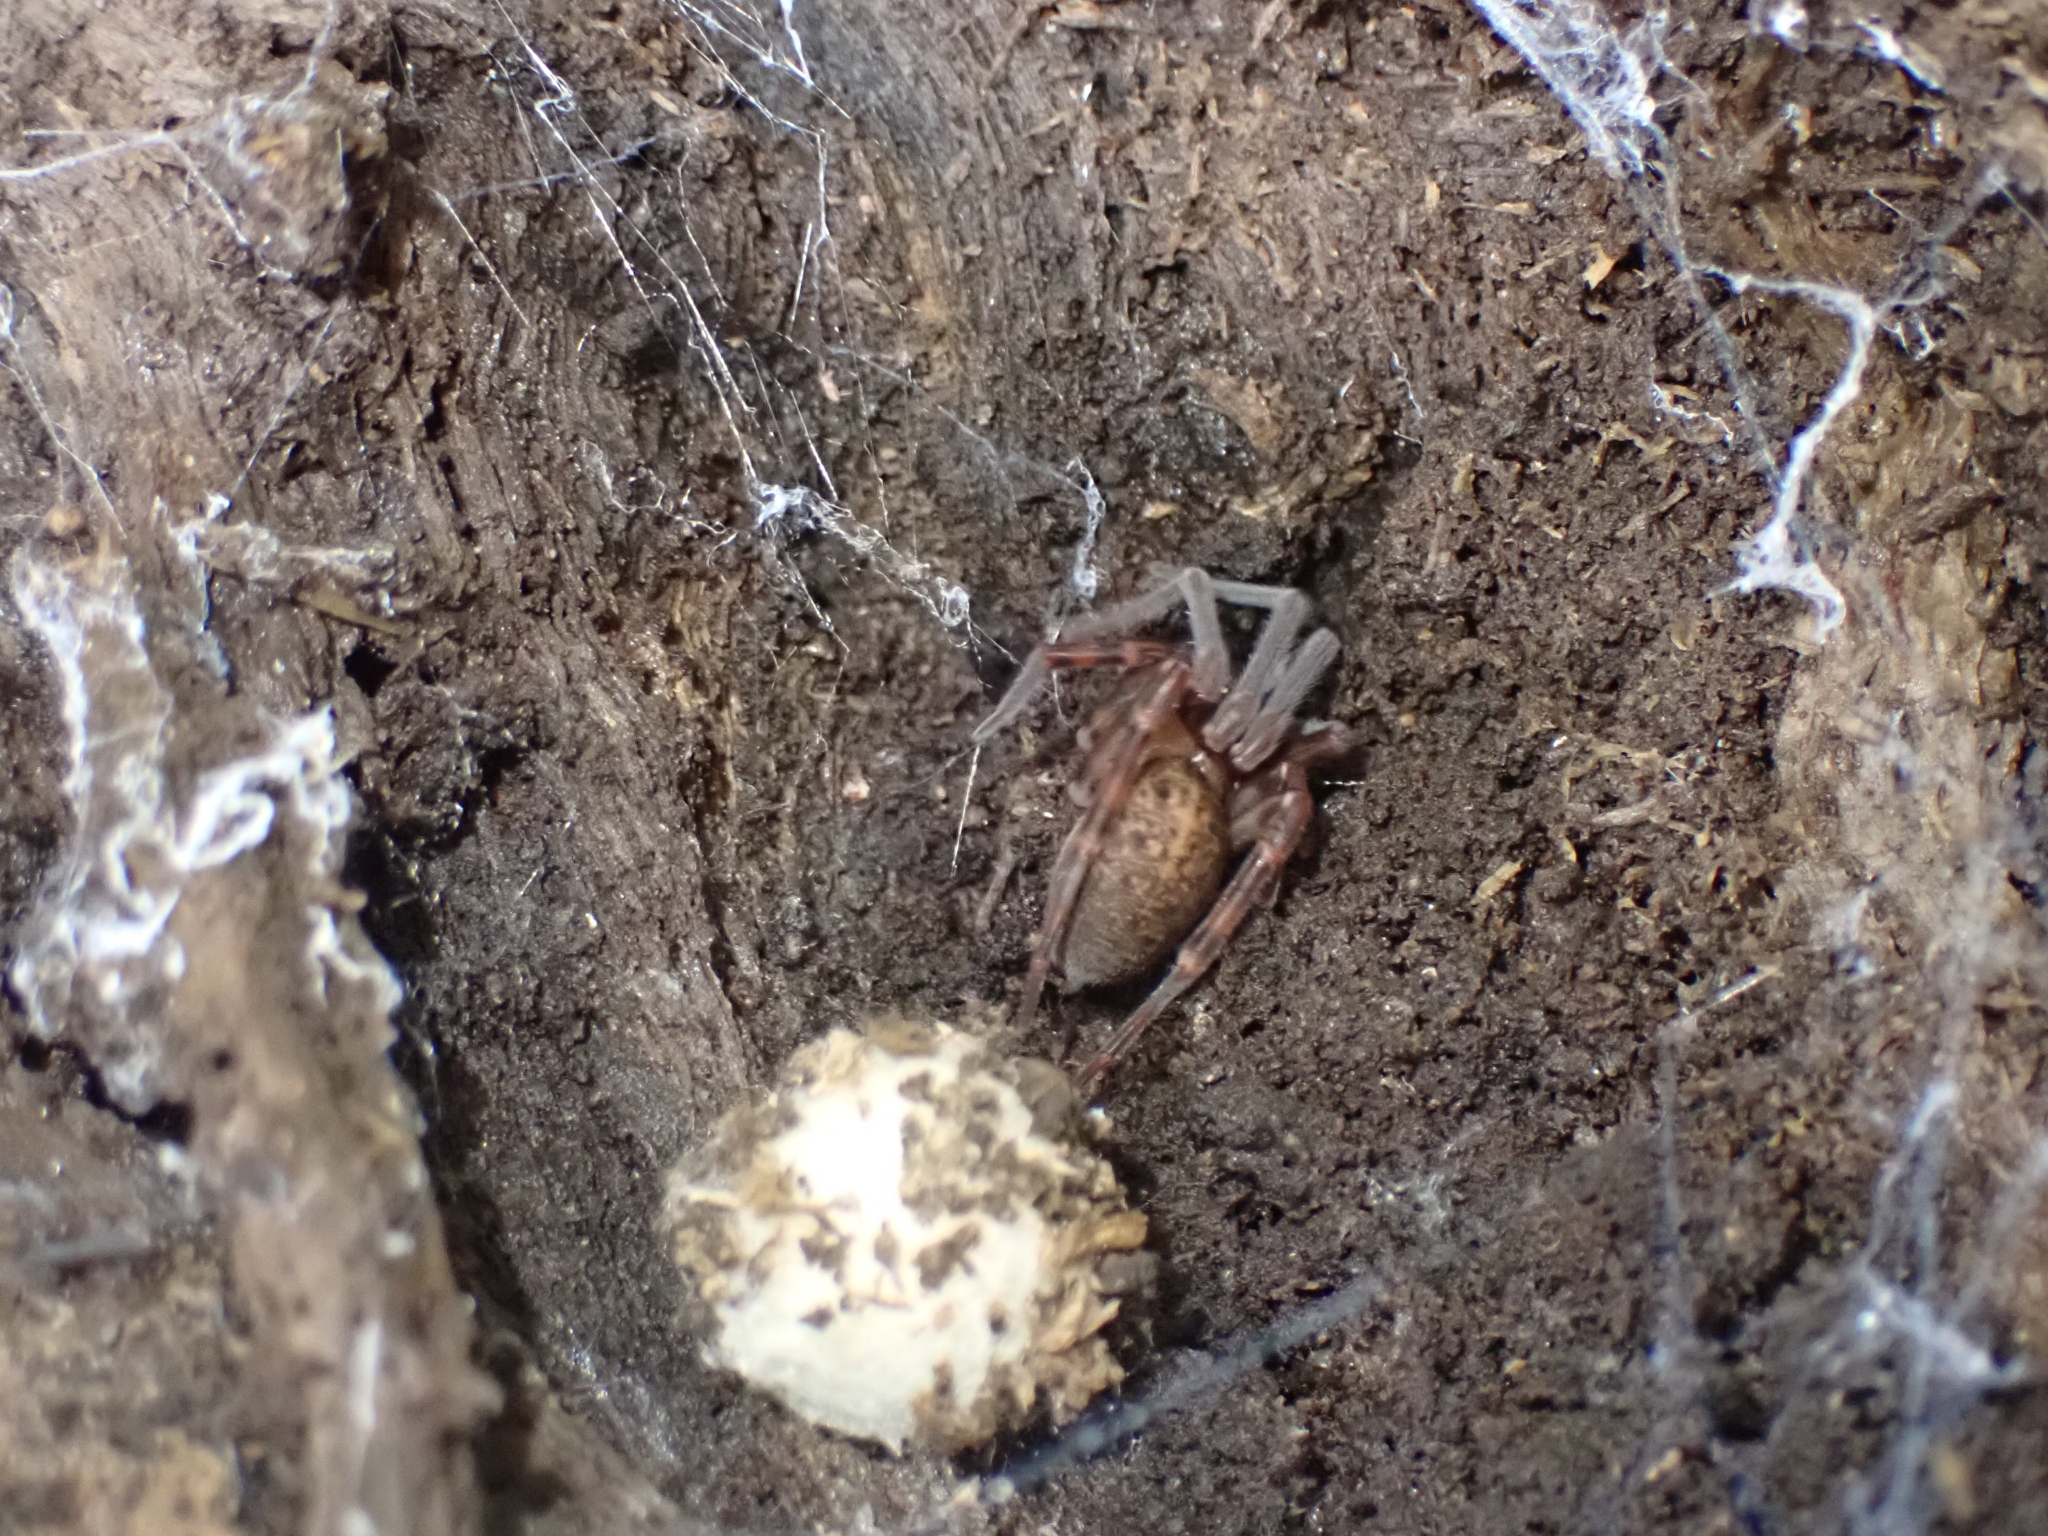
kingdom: Animalia
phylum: Arthropoda
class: Arachnida
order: Araneae
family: Megadictynidae
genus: Megadictyna
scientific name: Megadictyna thilenii
